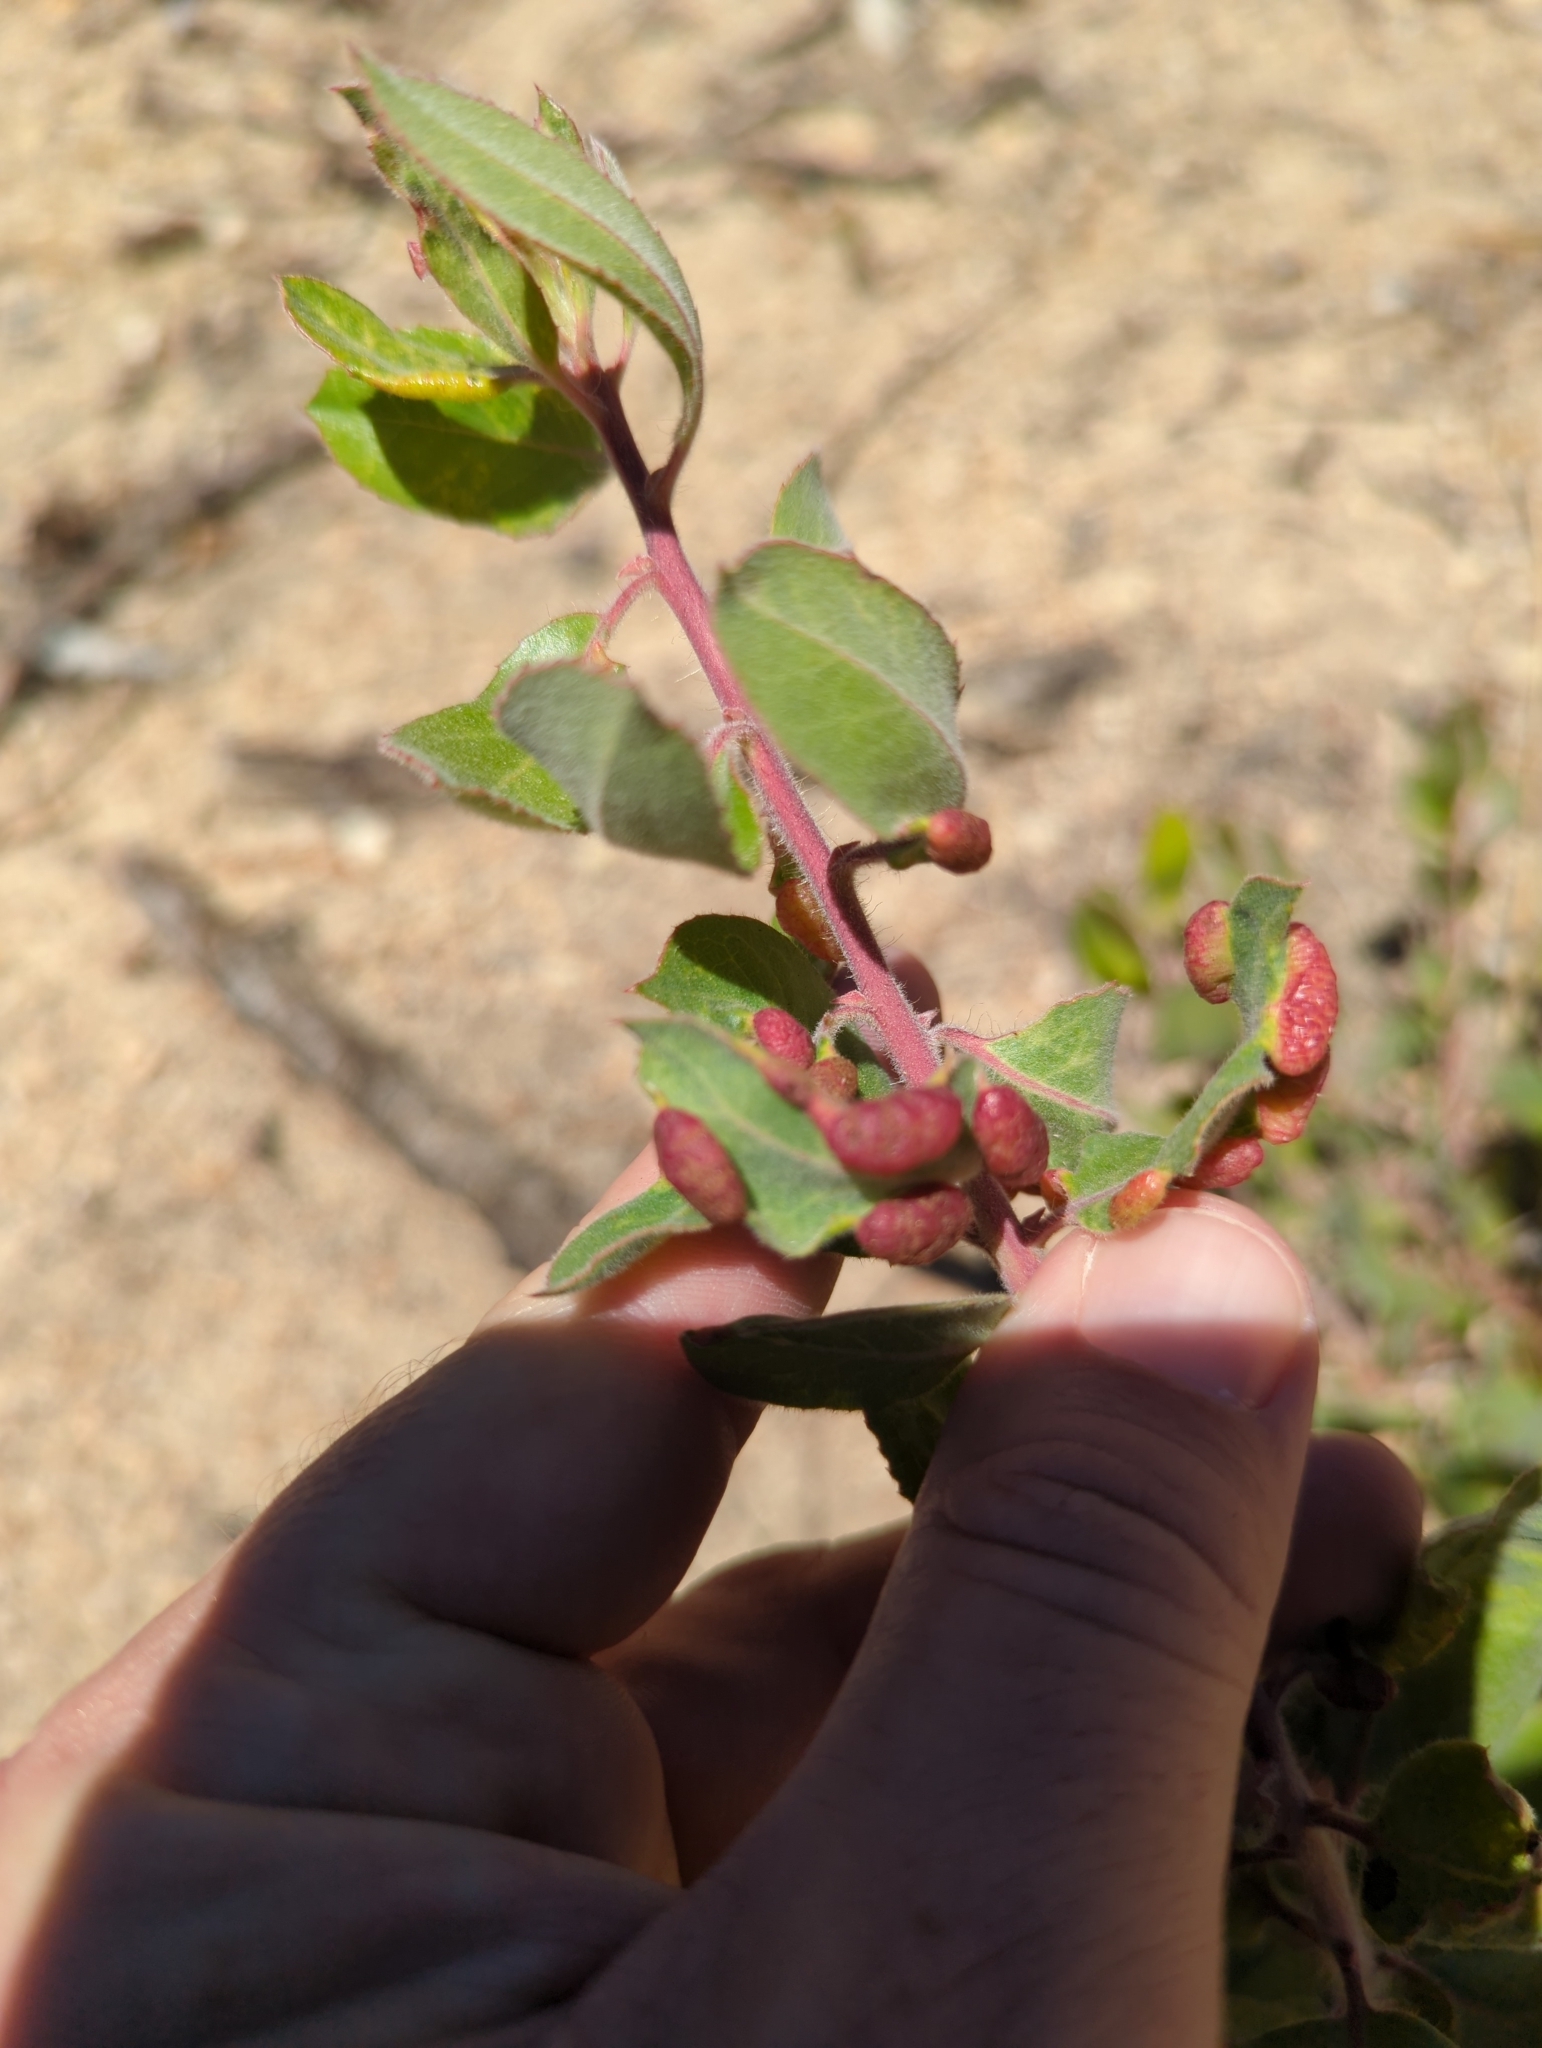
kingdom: Animalia
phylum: Arthropoda
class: Insecta
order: Hemiptera
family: Aphididae
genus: Tamalia
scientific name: Tamalia coweni
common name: Manzanita leafgall aphid
